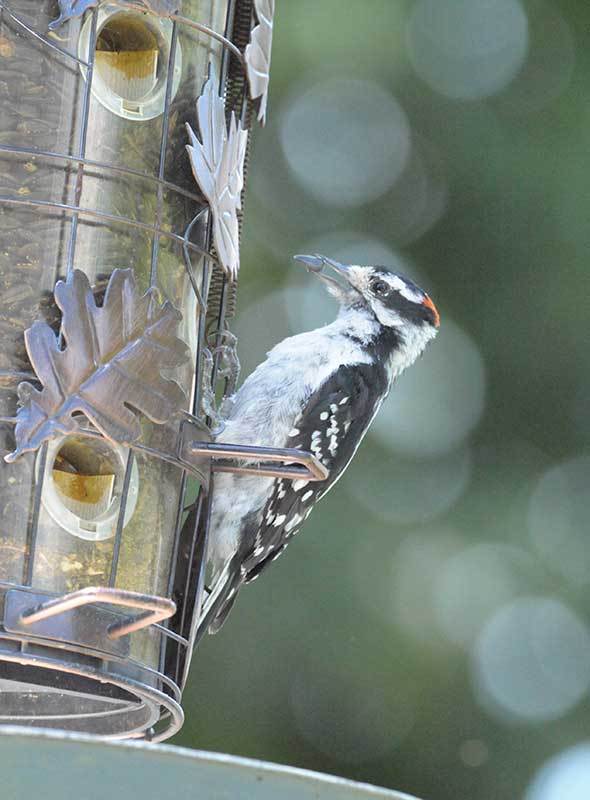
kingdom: Animalia
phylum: Chordata
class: Aves
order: Piciformes
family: Picidae
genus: Dryobates
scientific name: Dryobates pubescens
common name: Downy woodpecker
